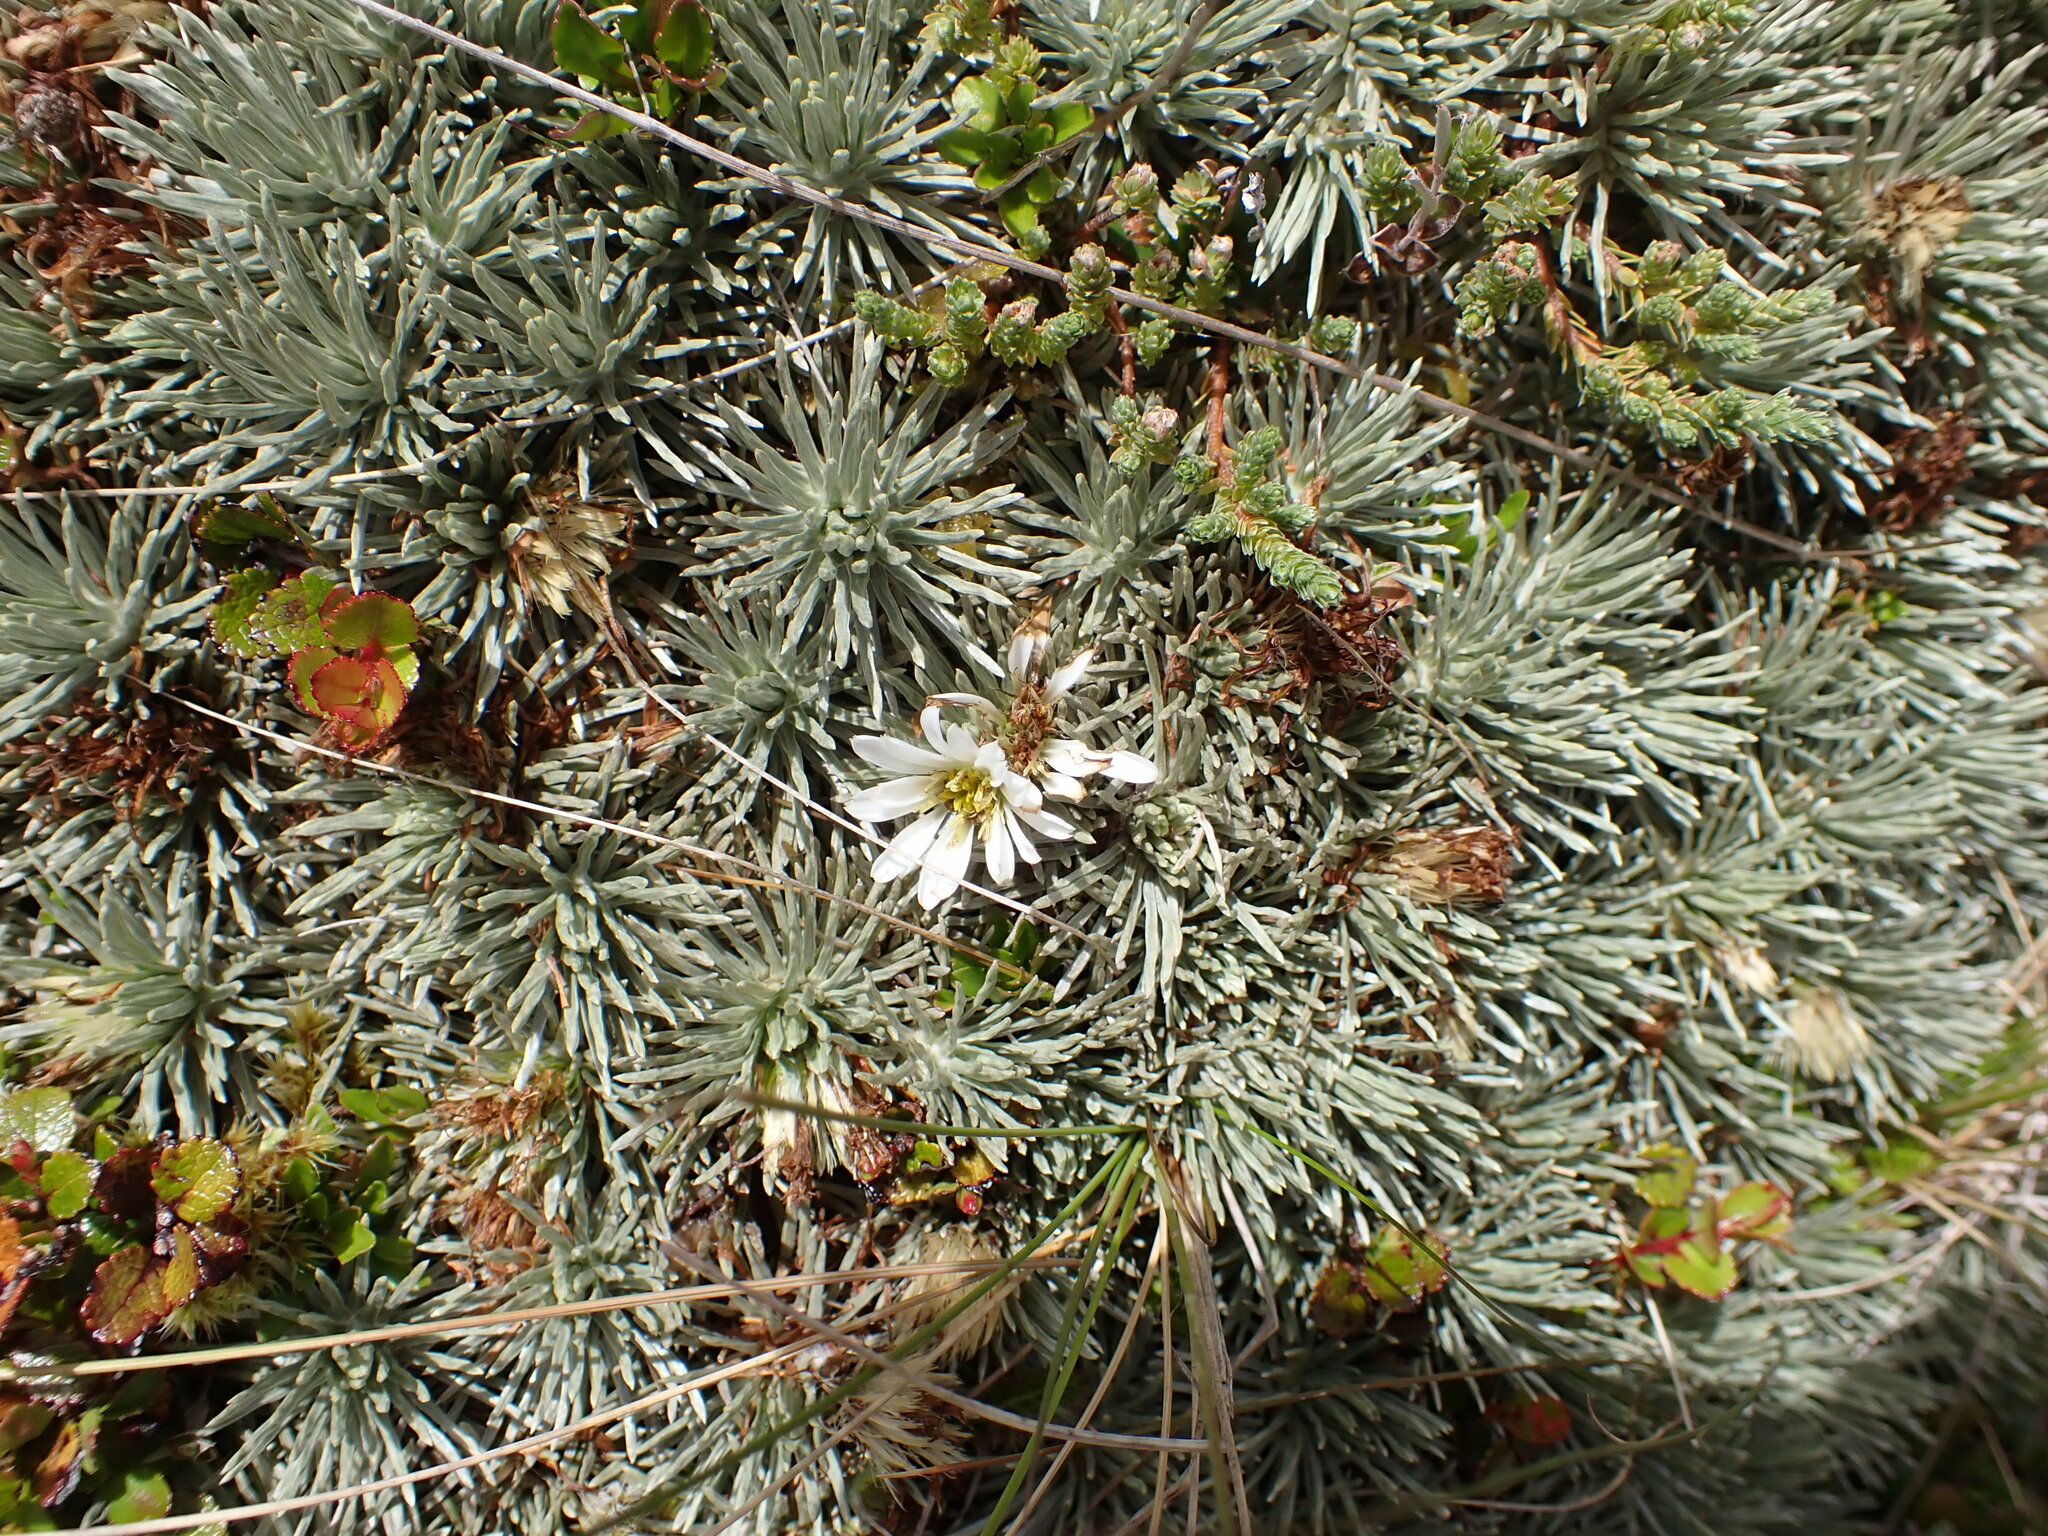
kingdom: Plantae
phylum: Tracheophyta
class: Magnoliopsida
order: Asterales
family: Asteraceae
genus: Celmisia
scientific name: Celmisia sessiliflora
